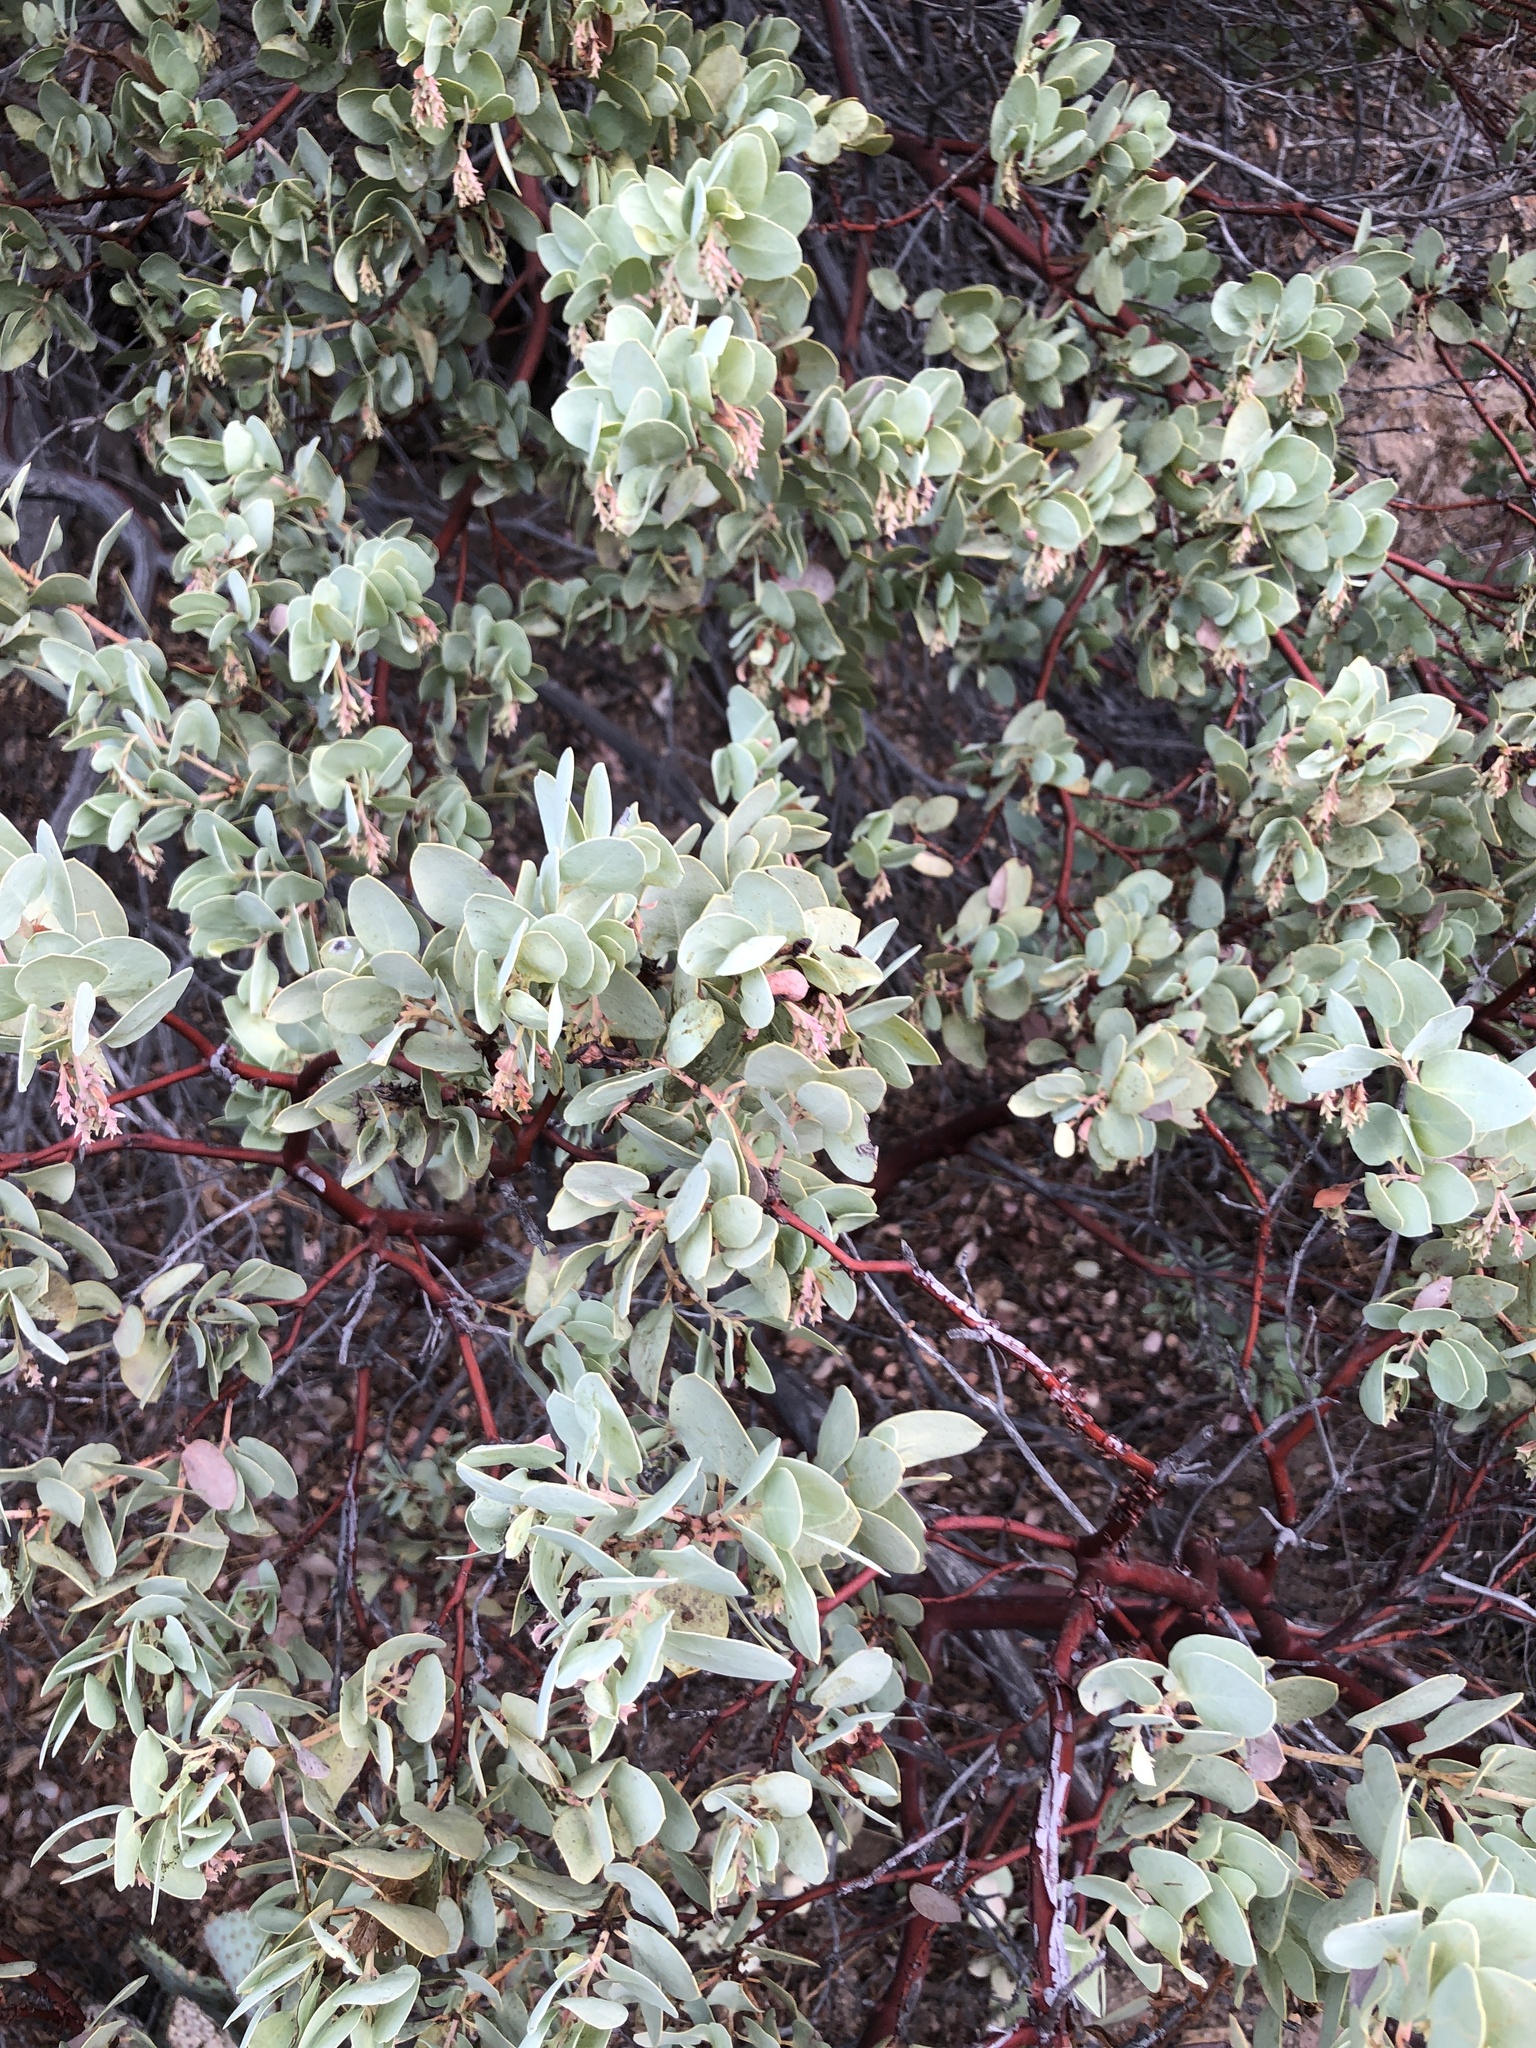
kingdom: Plantae
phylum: Tracheophyta
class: Magnoliopsida
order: Ericales
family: Ericaceae
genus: Arctostaphylos
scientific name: Arctostaphylos glauca
